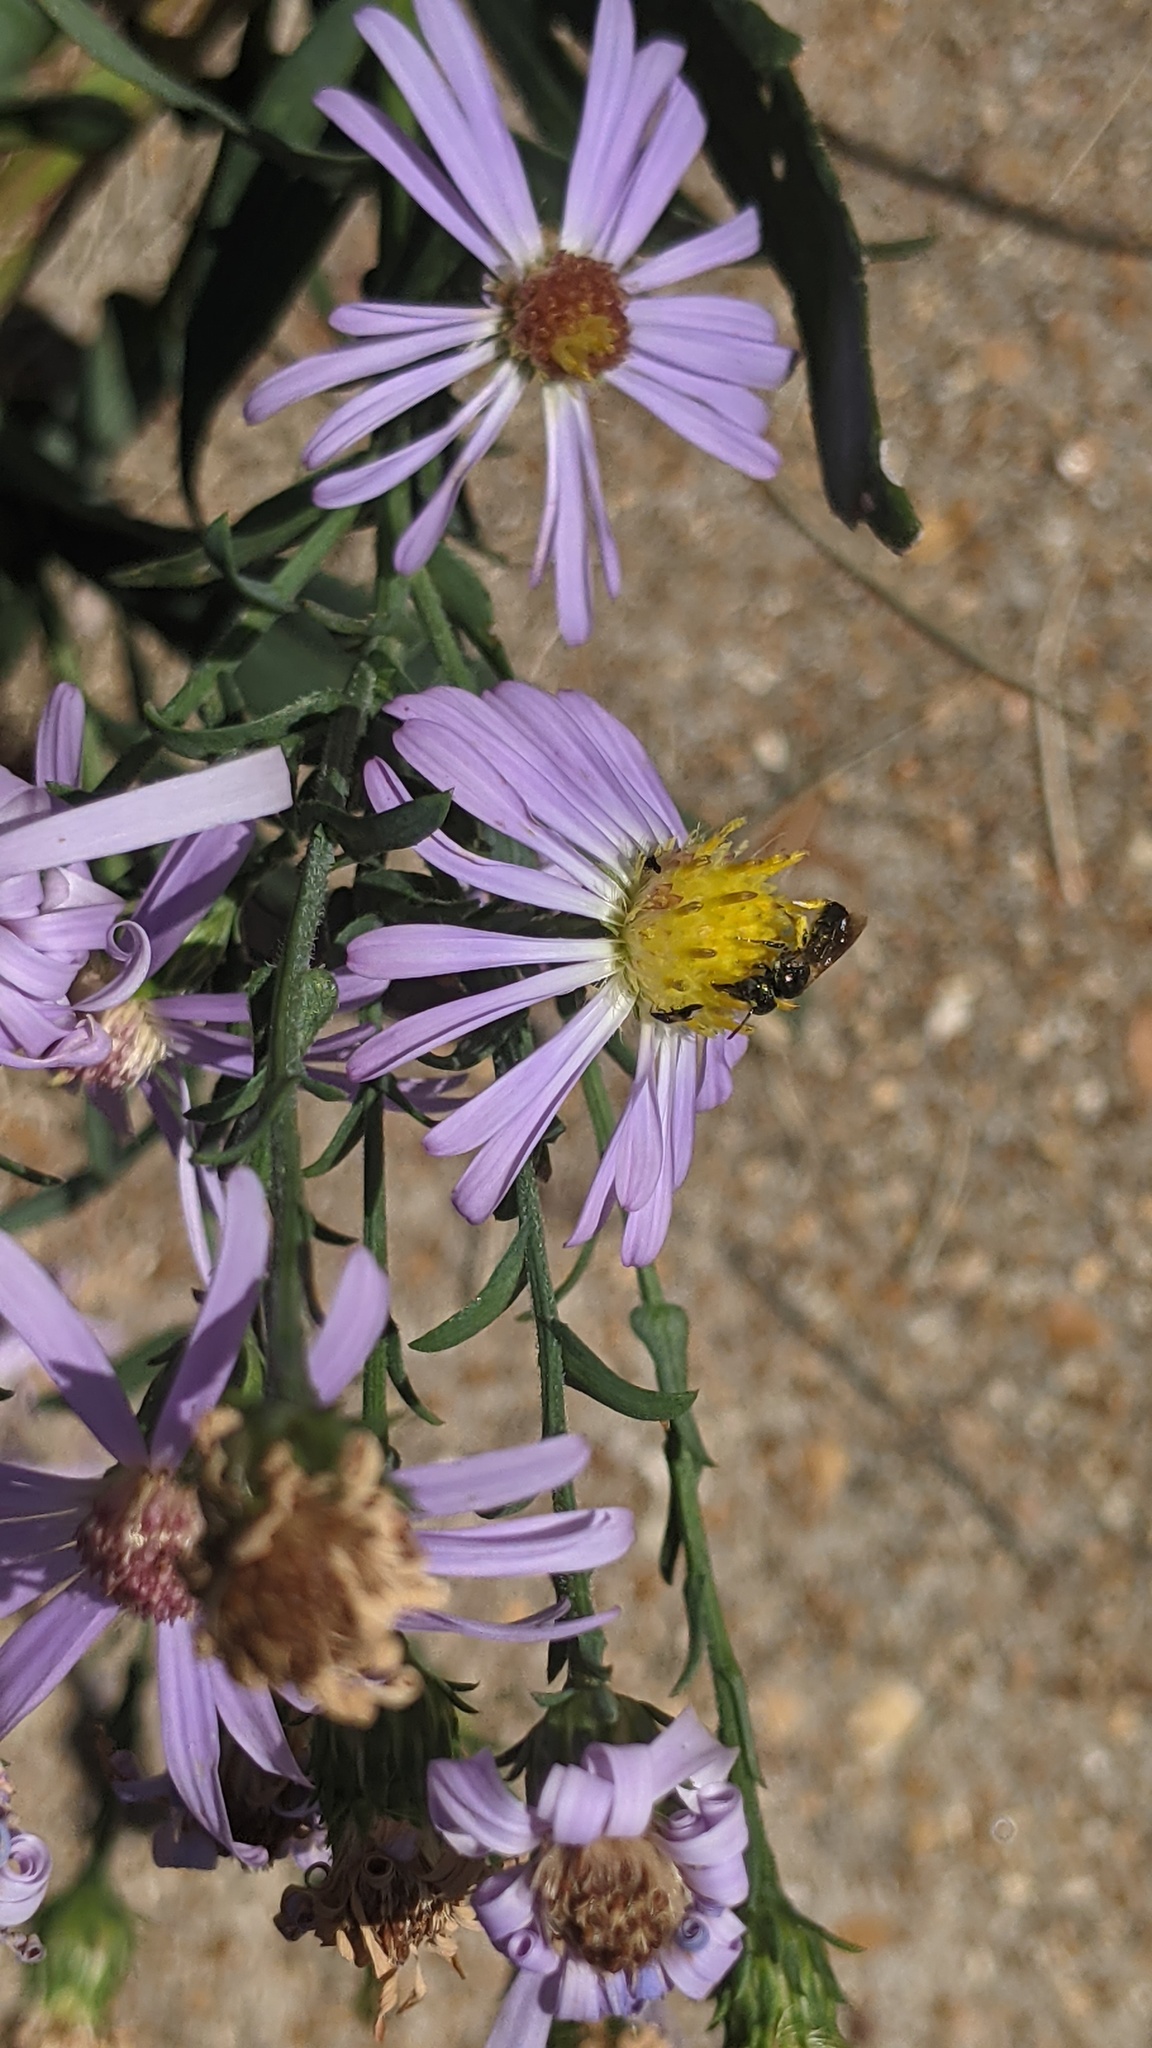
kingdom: Animalia
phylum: Arthropoda
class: Insecta
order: Hymenoptera
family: Apidae
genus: Zadontomerus
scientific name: Zadontomerus
